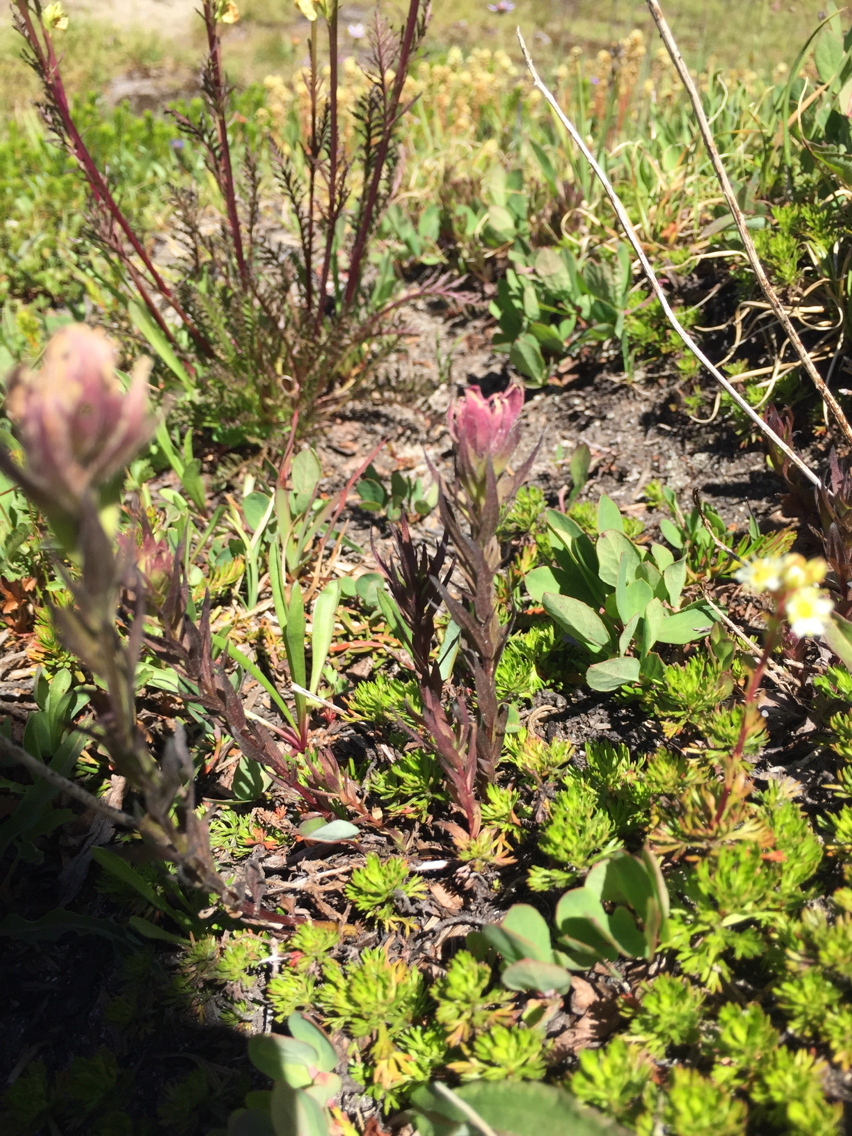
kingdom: Plantae
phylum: Tracheophyta
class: Magnoliopsida
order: Lamiales
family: Orobanchaceae
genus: Castilleja
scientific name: Castilleja parviflora
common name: Mountain paintbrush
